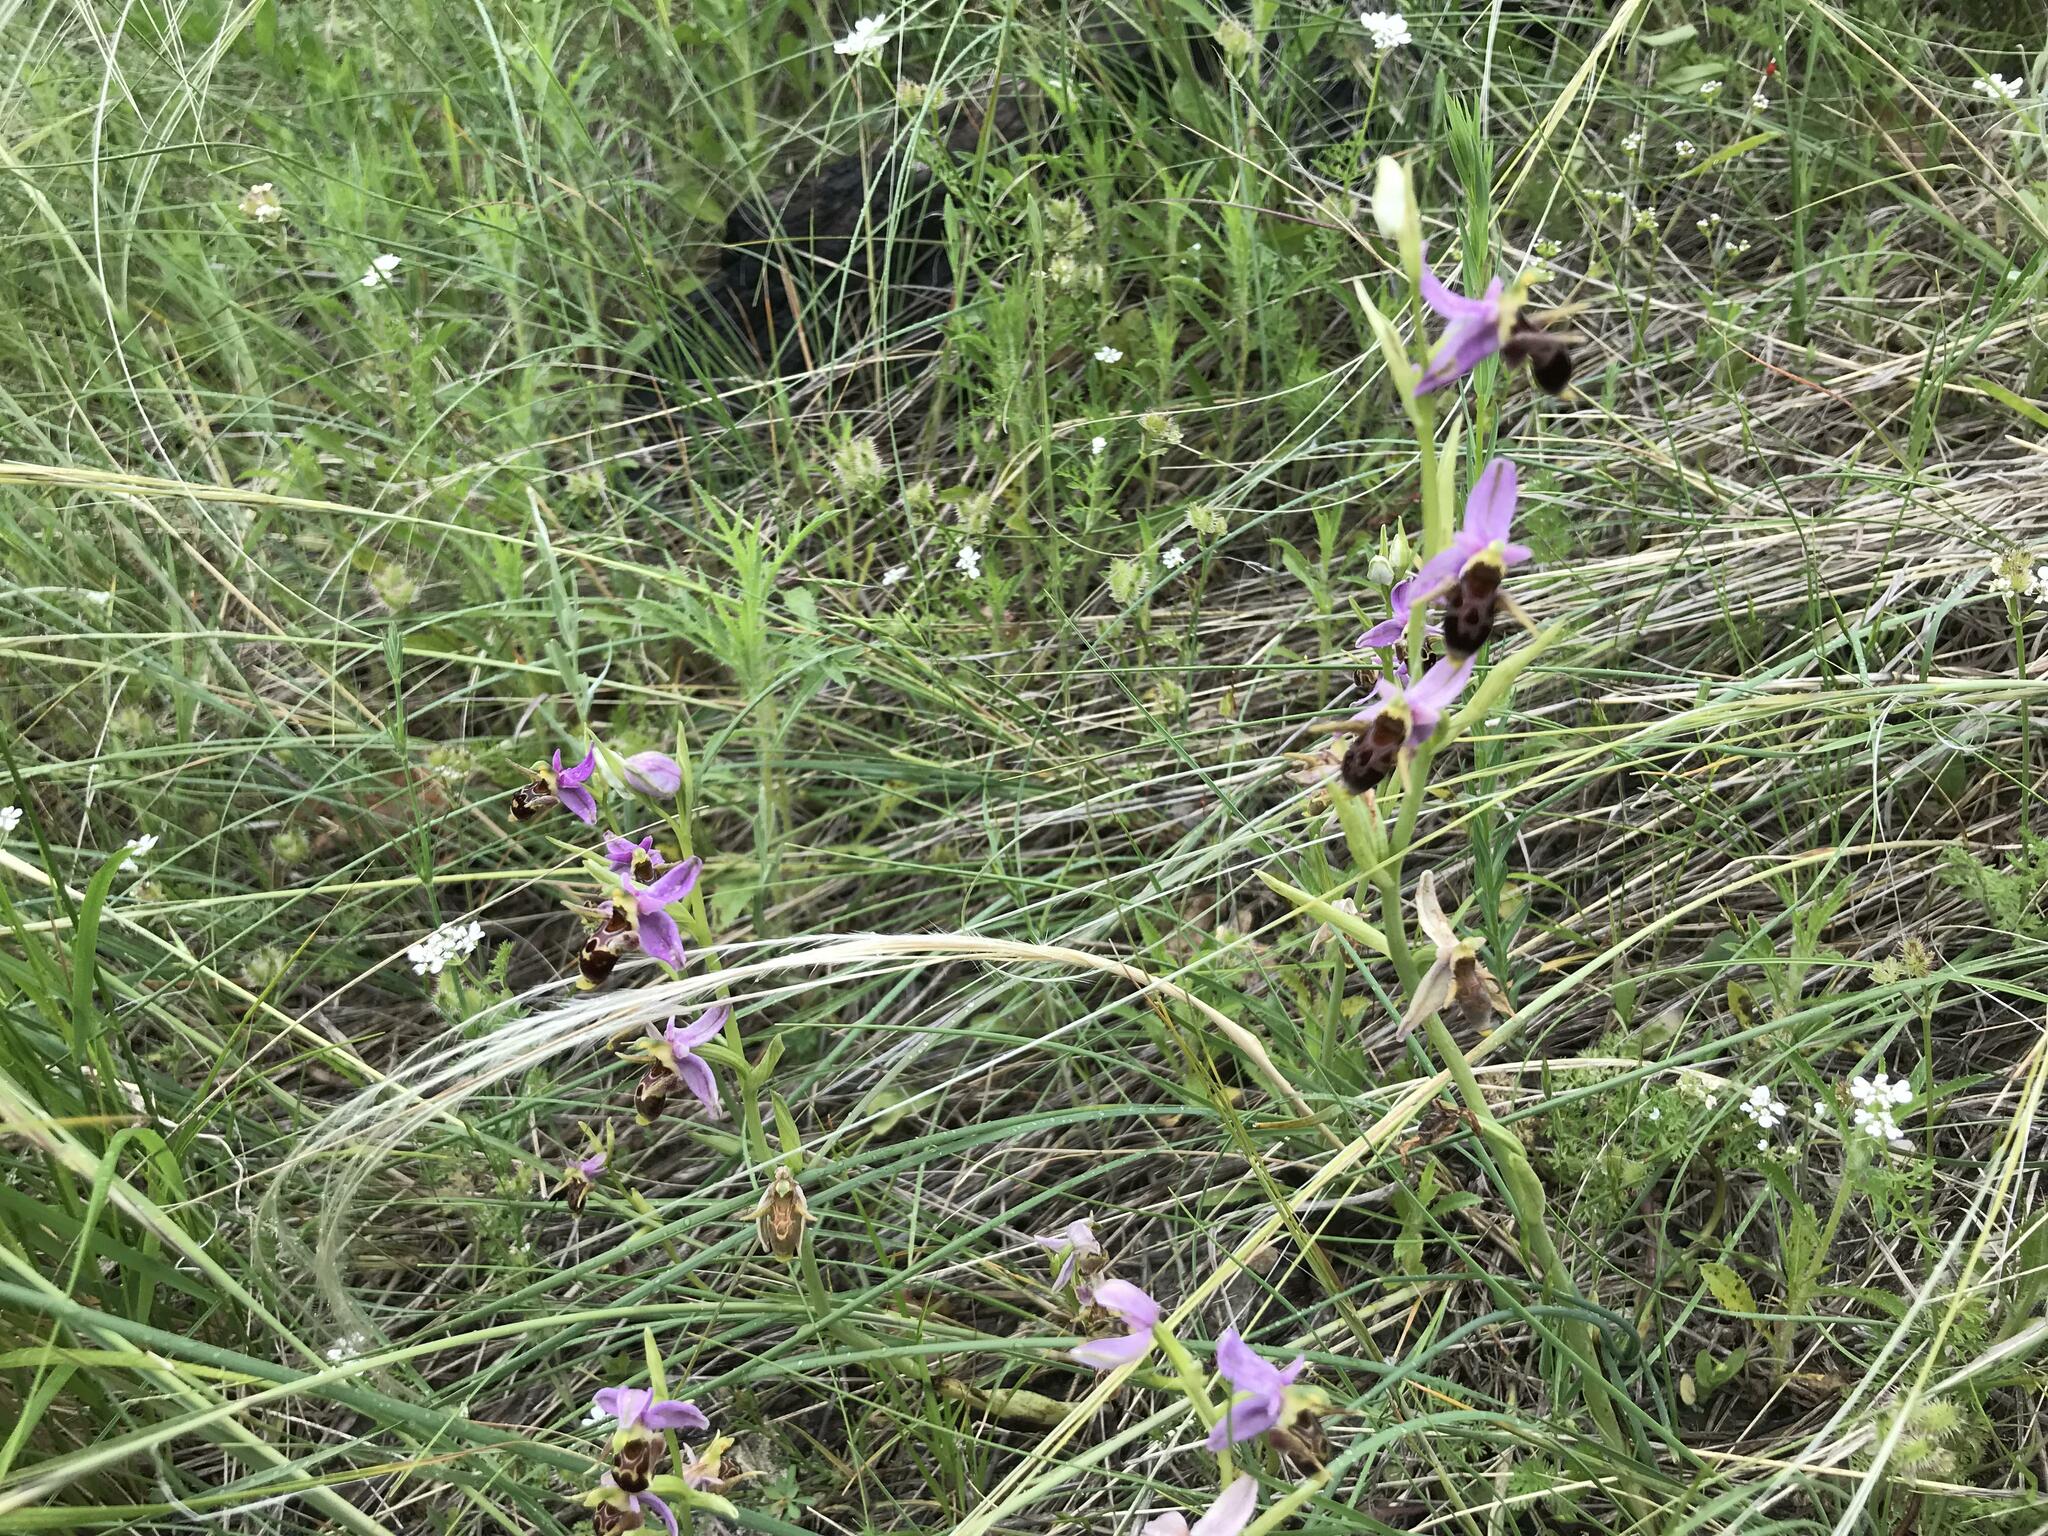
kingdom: Plantae
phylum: Tracheophyta
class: Liliopsida
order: Asparagales
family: Orchidaceae
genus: Ophrys
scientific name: Ophrys
